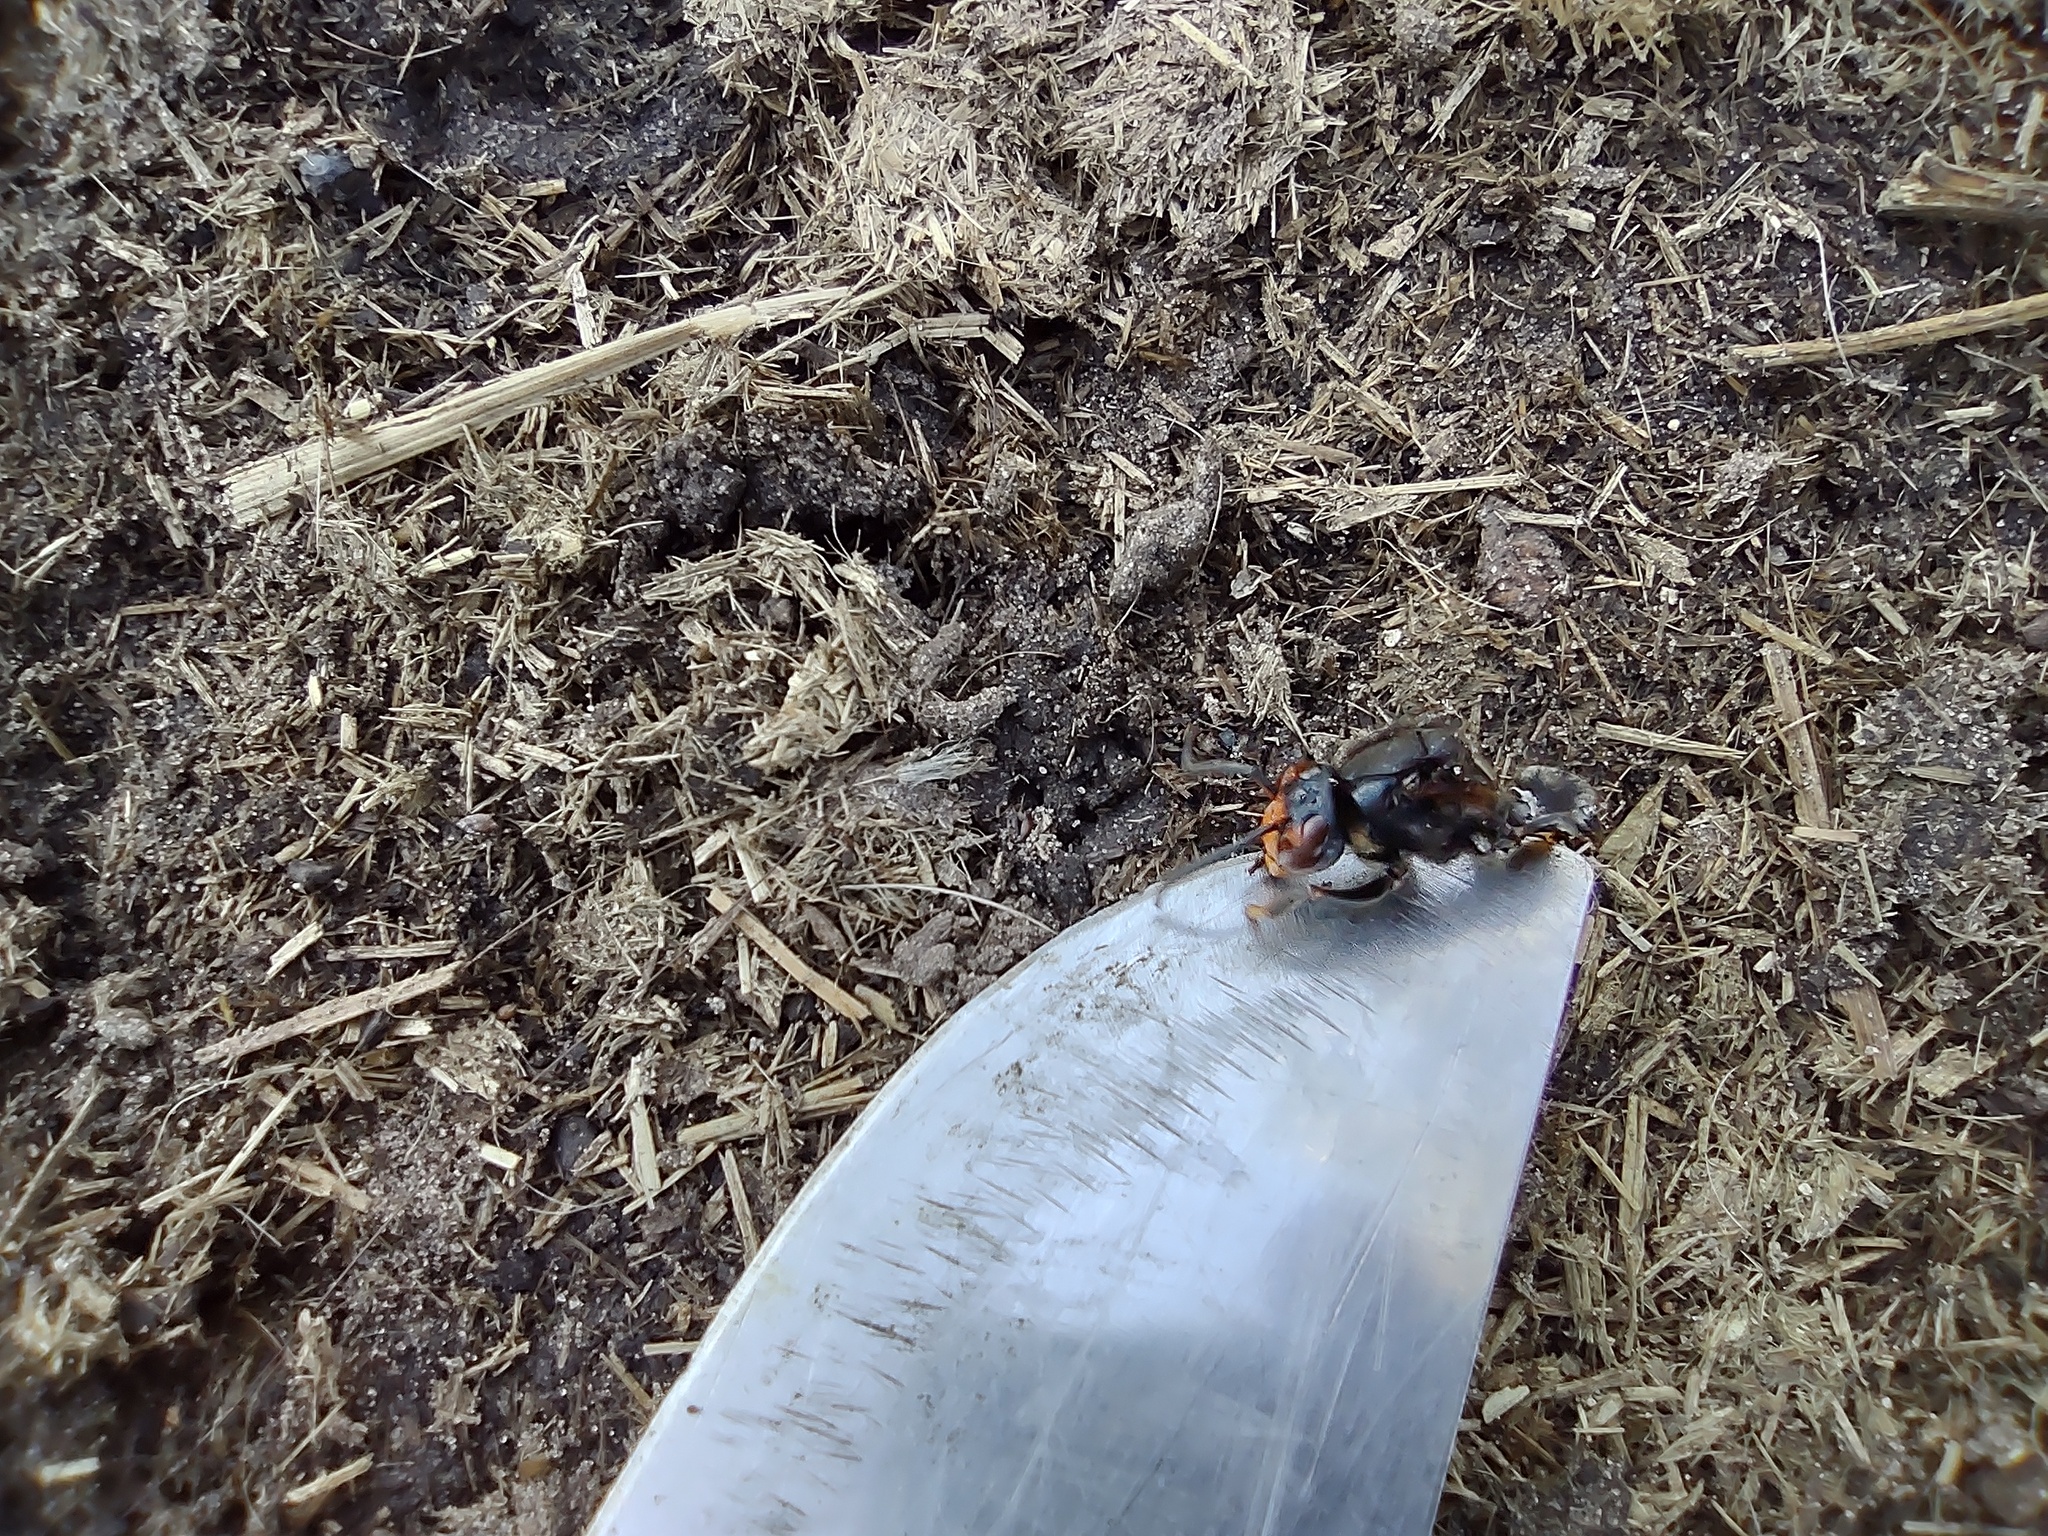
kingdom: Animalia
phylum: Arthropoda
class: Insecta
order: Hymenoptera
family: Vespidae
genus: Vespa
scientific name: Vespa velutina
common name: Asian hornet
